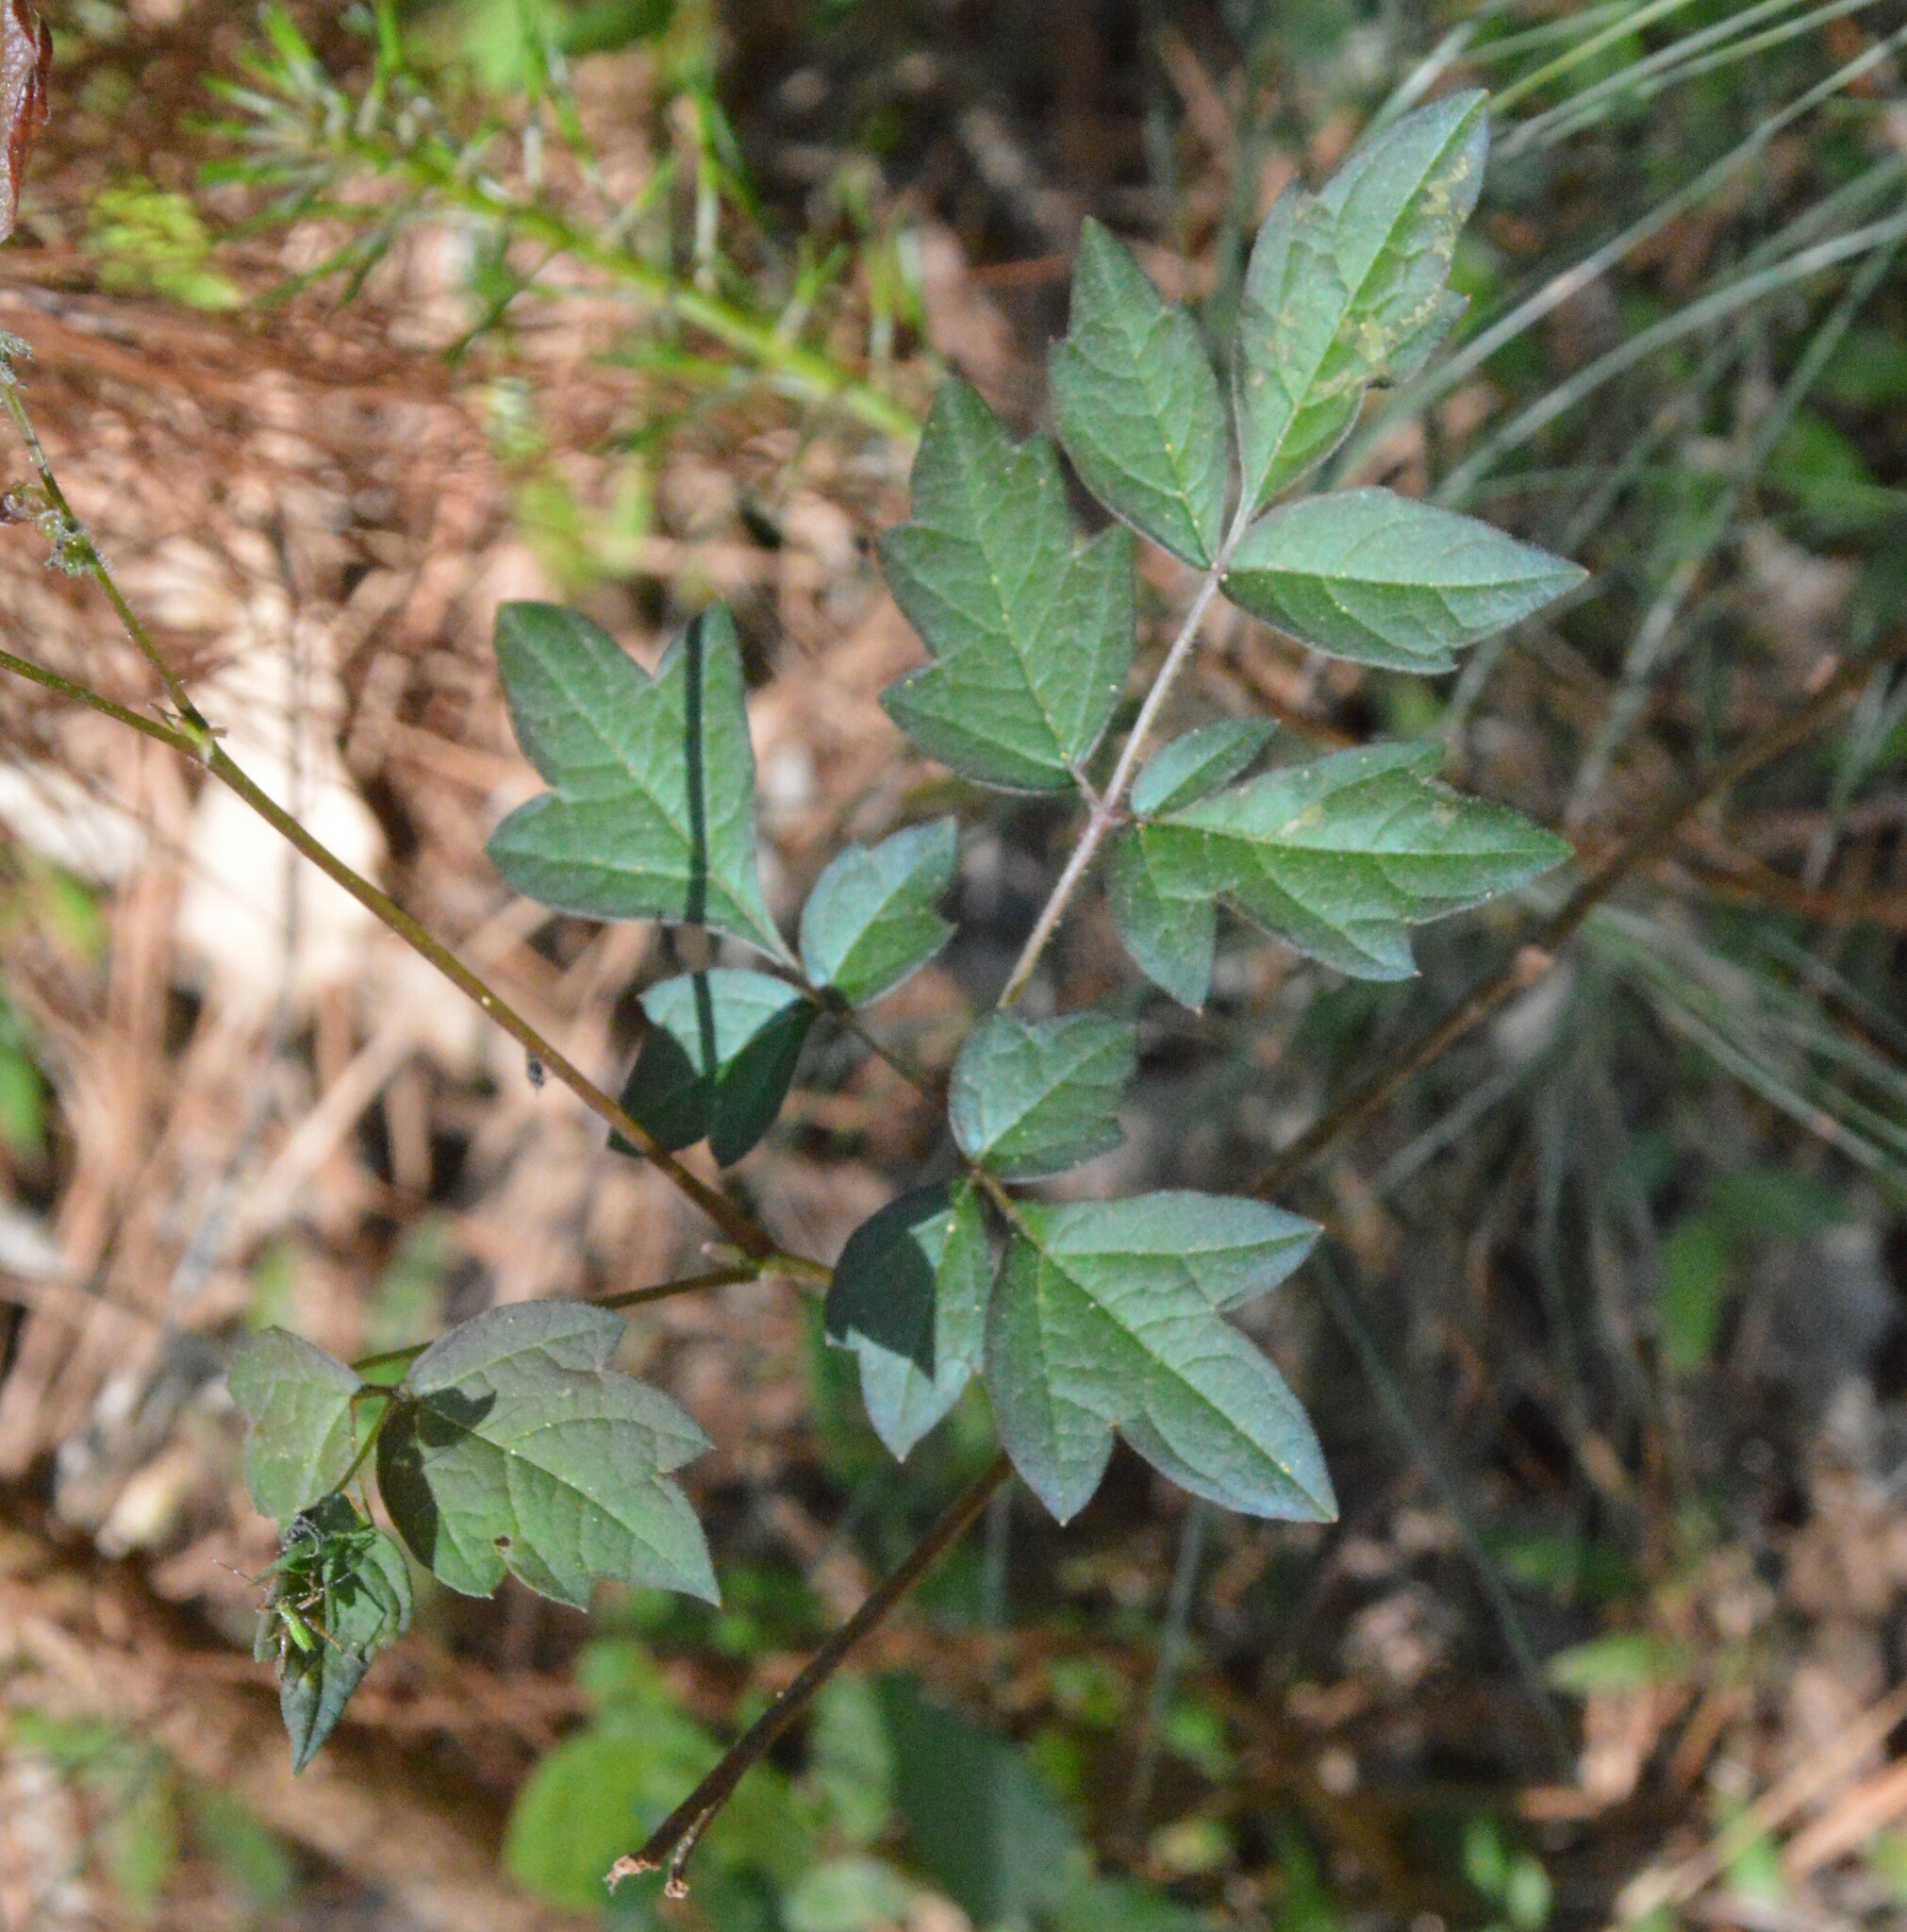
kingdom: Plantae
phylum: Tracheophyta
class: Magnoliopsida
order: Vitales
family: Vitaceae
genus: Nekemias
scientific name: Nekemias arborea
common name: Peppervine
